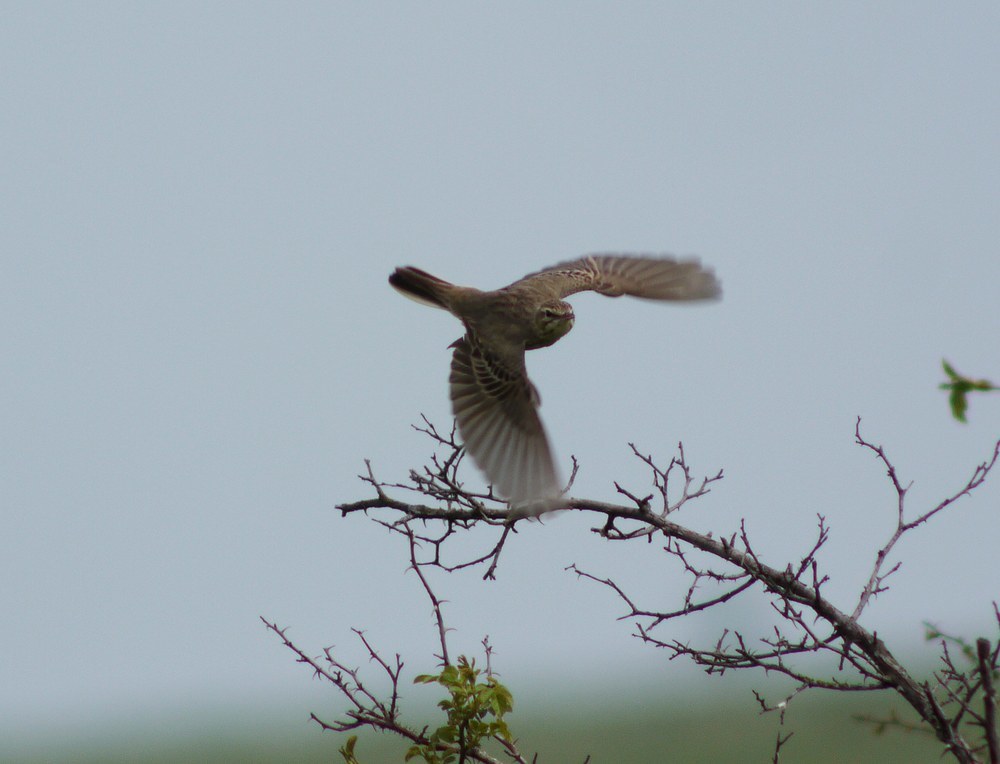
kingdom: Animalia
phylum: Chordata
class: Aves
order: Passeriformes
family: Motacillidae
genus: Anthus
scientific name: Anthus campestris
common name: Tawny pipit
